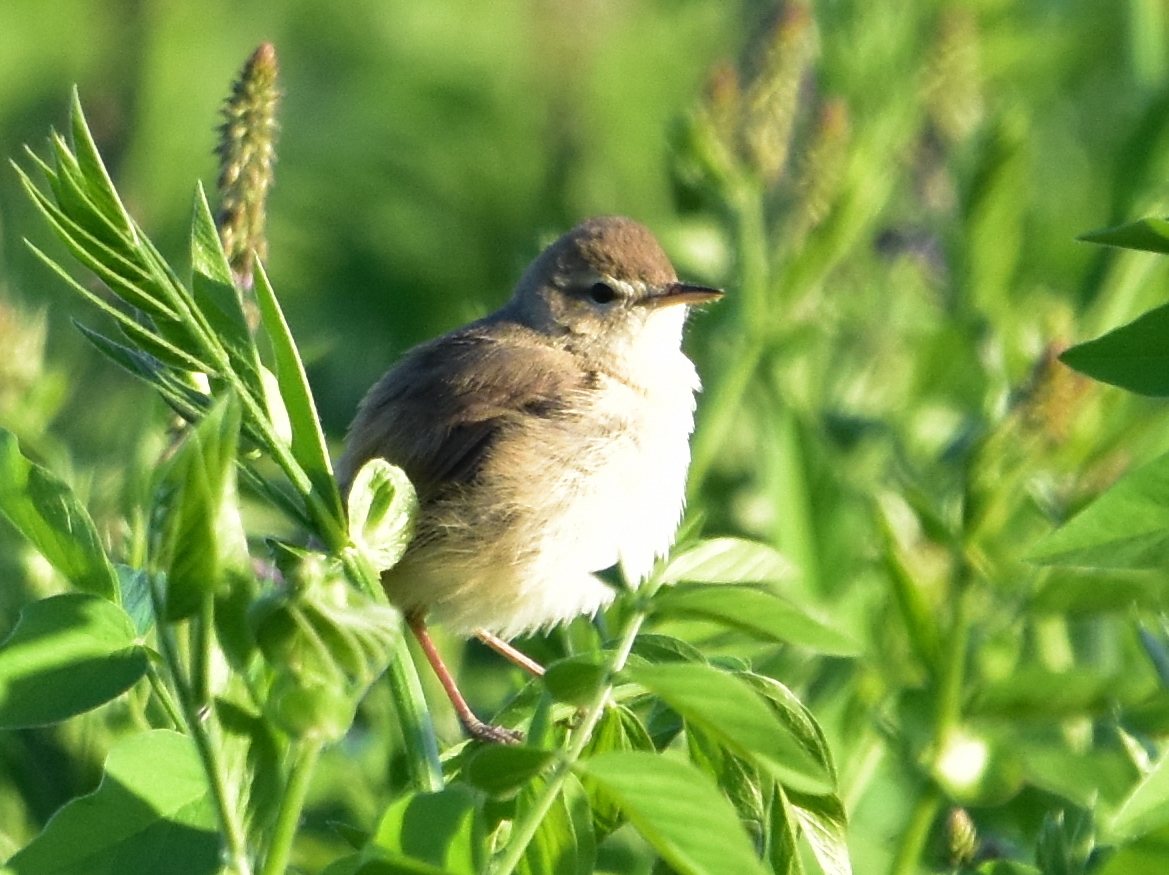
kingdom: Animalia
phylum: Chordata
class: Aves
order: Passeriformes
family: Acrocephalidae
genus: Iduna
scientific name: Iduna caligata
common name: Booted warbler
